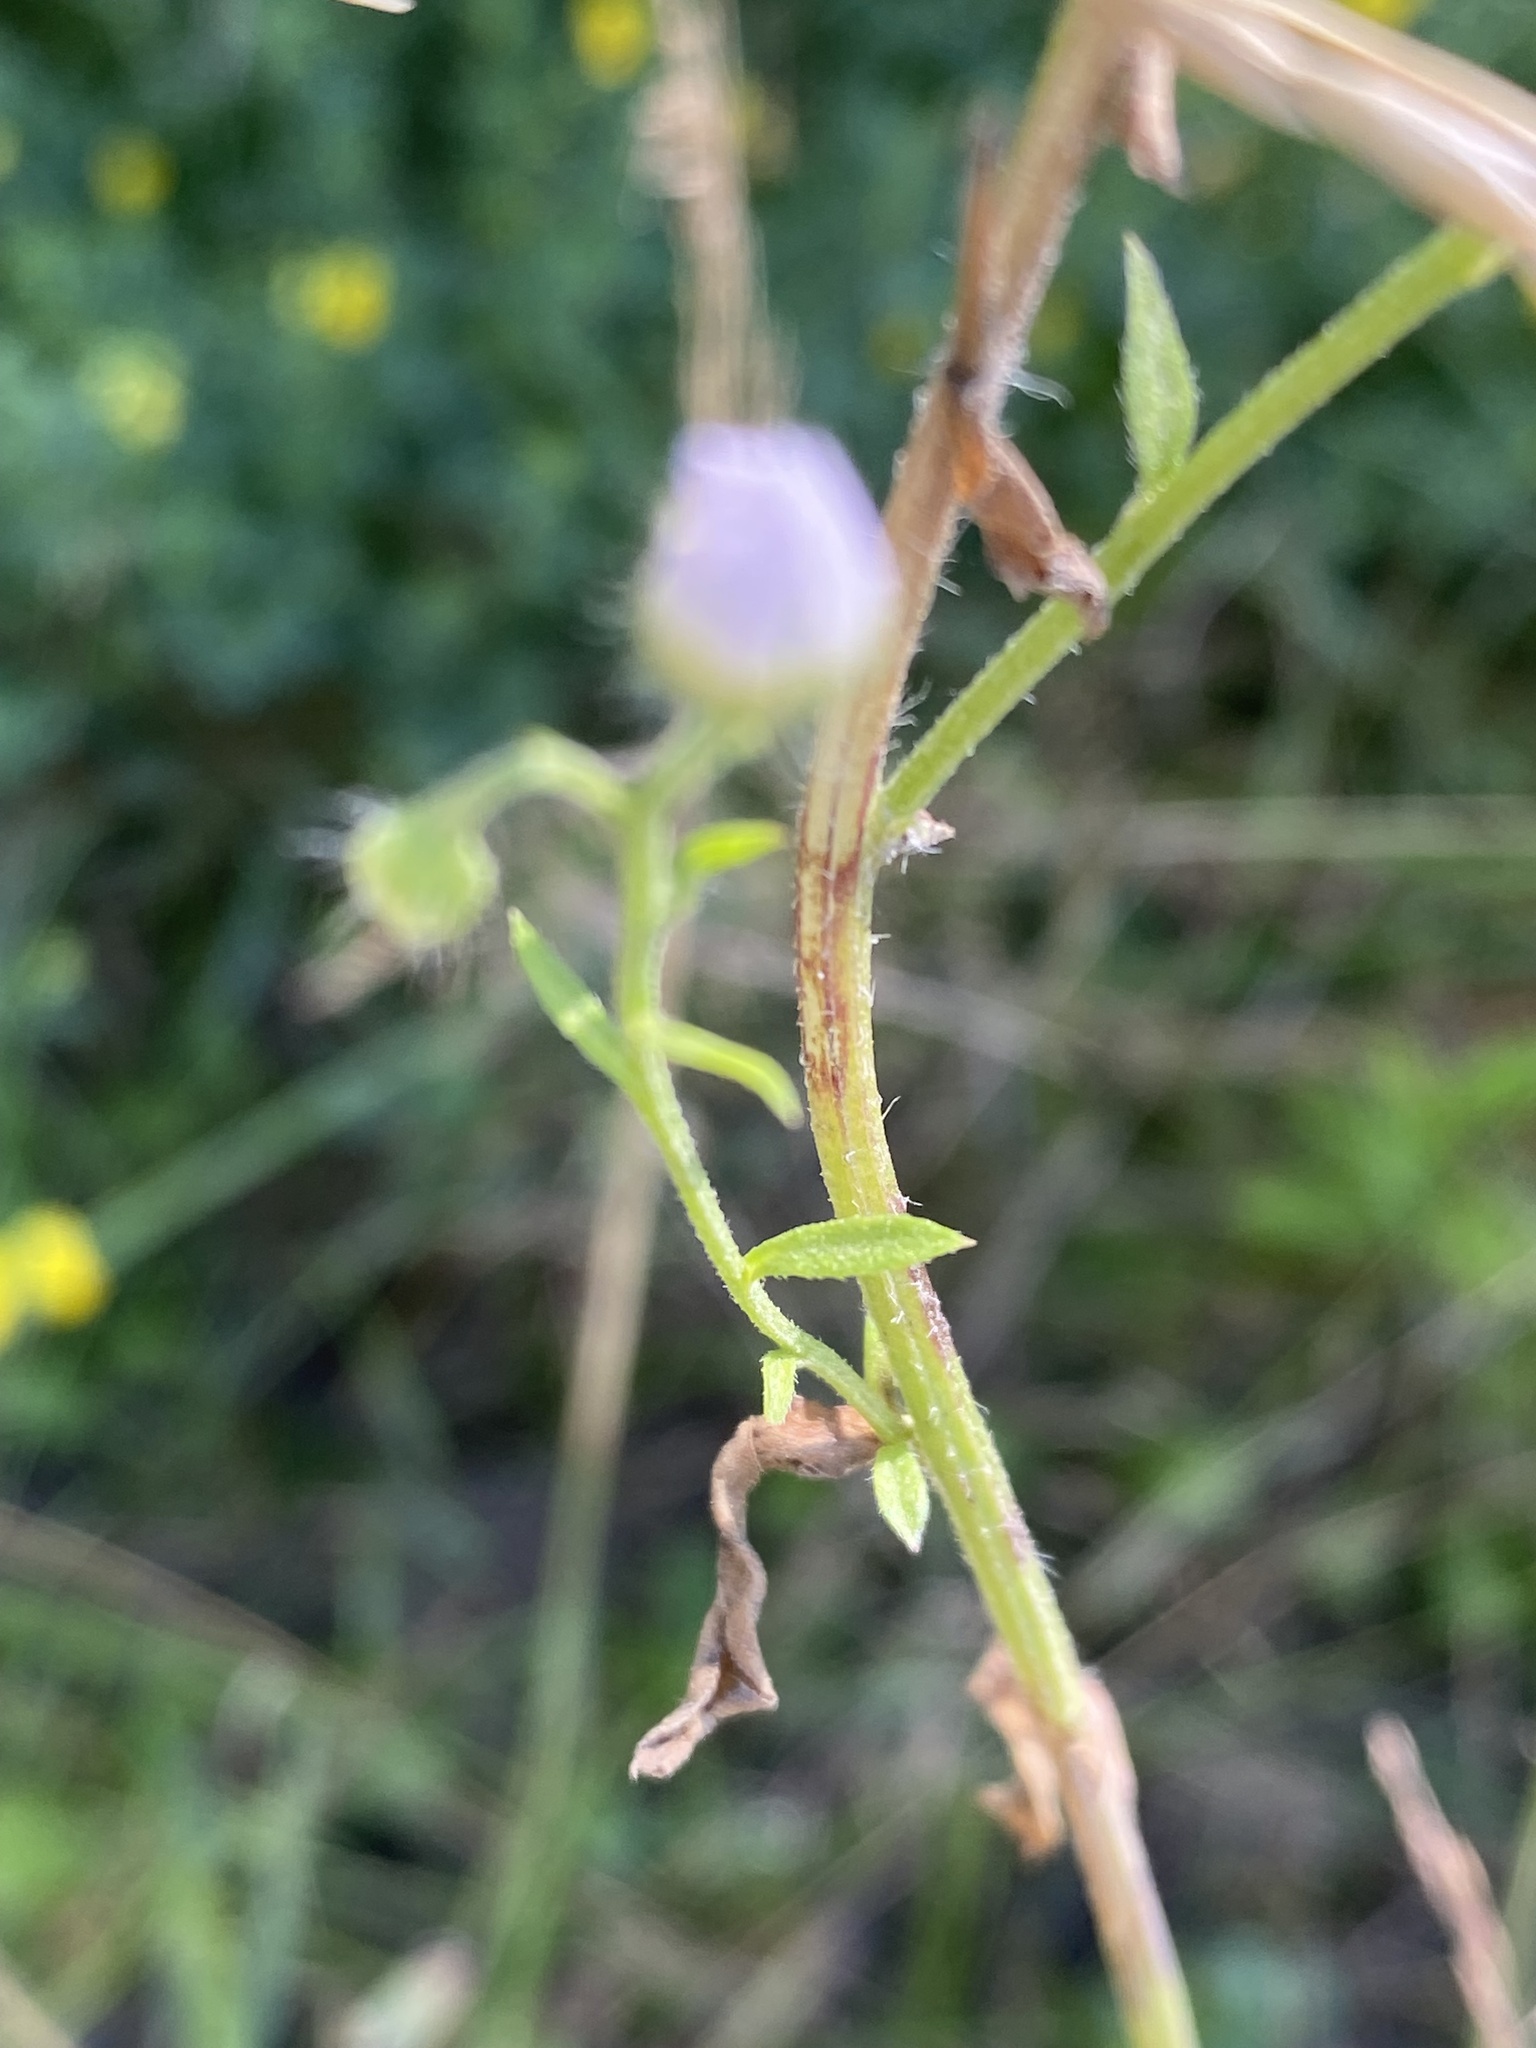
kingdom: Plantae
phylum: Tracheophyta
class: Magnoliopsida
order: Asterales
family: Asteraceae
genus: Erigeron
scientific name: Erigeron strigosus
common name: Common eastern fleabane
